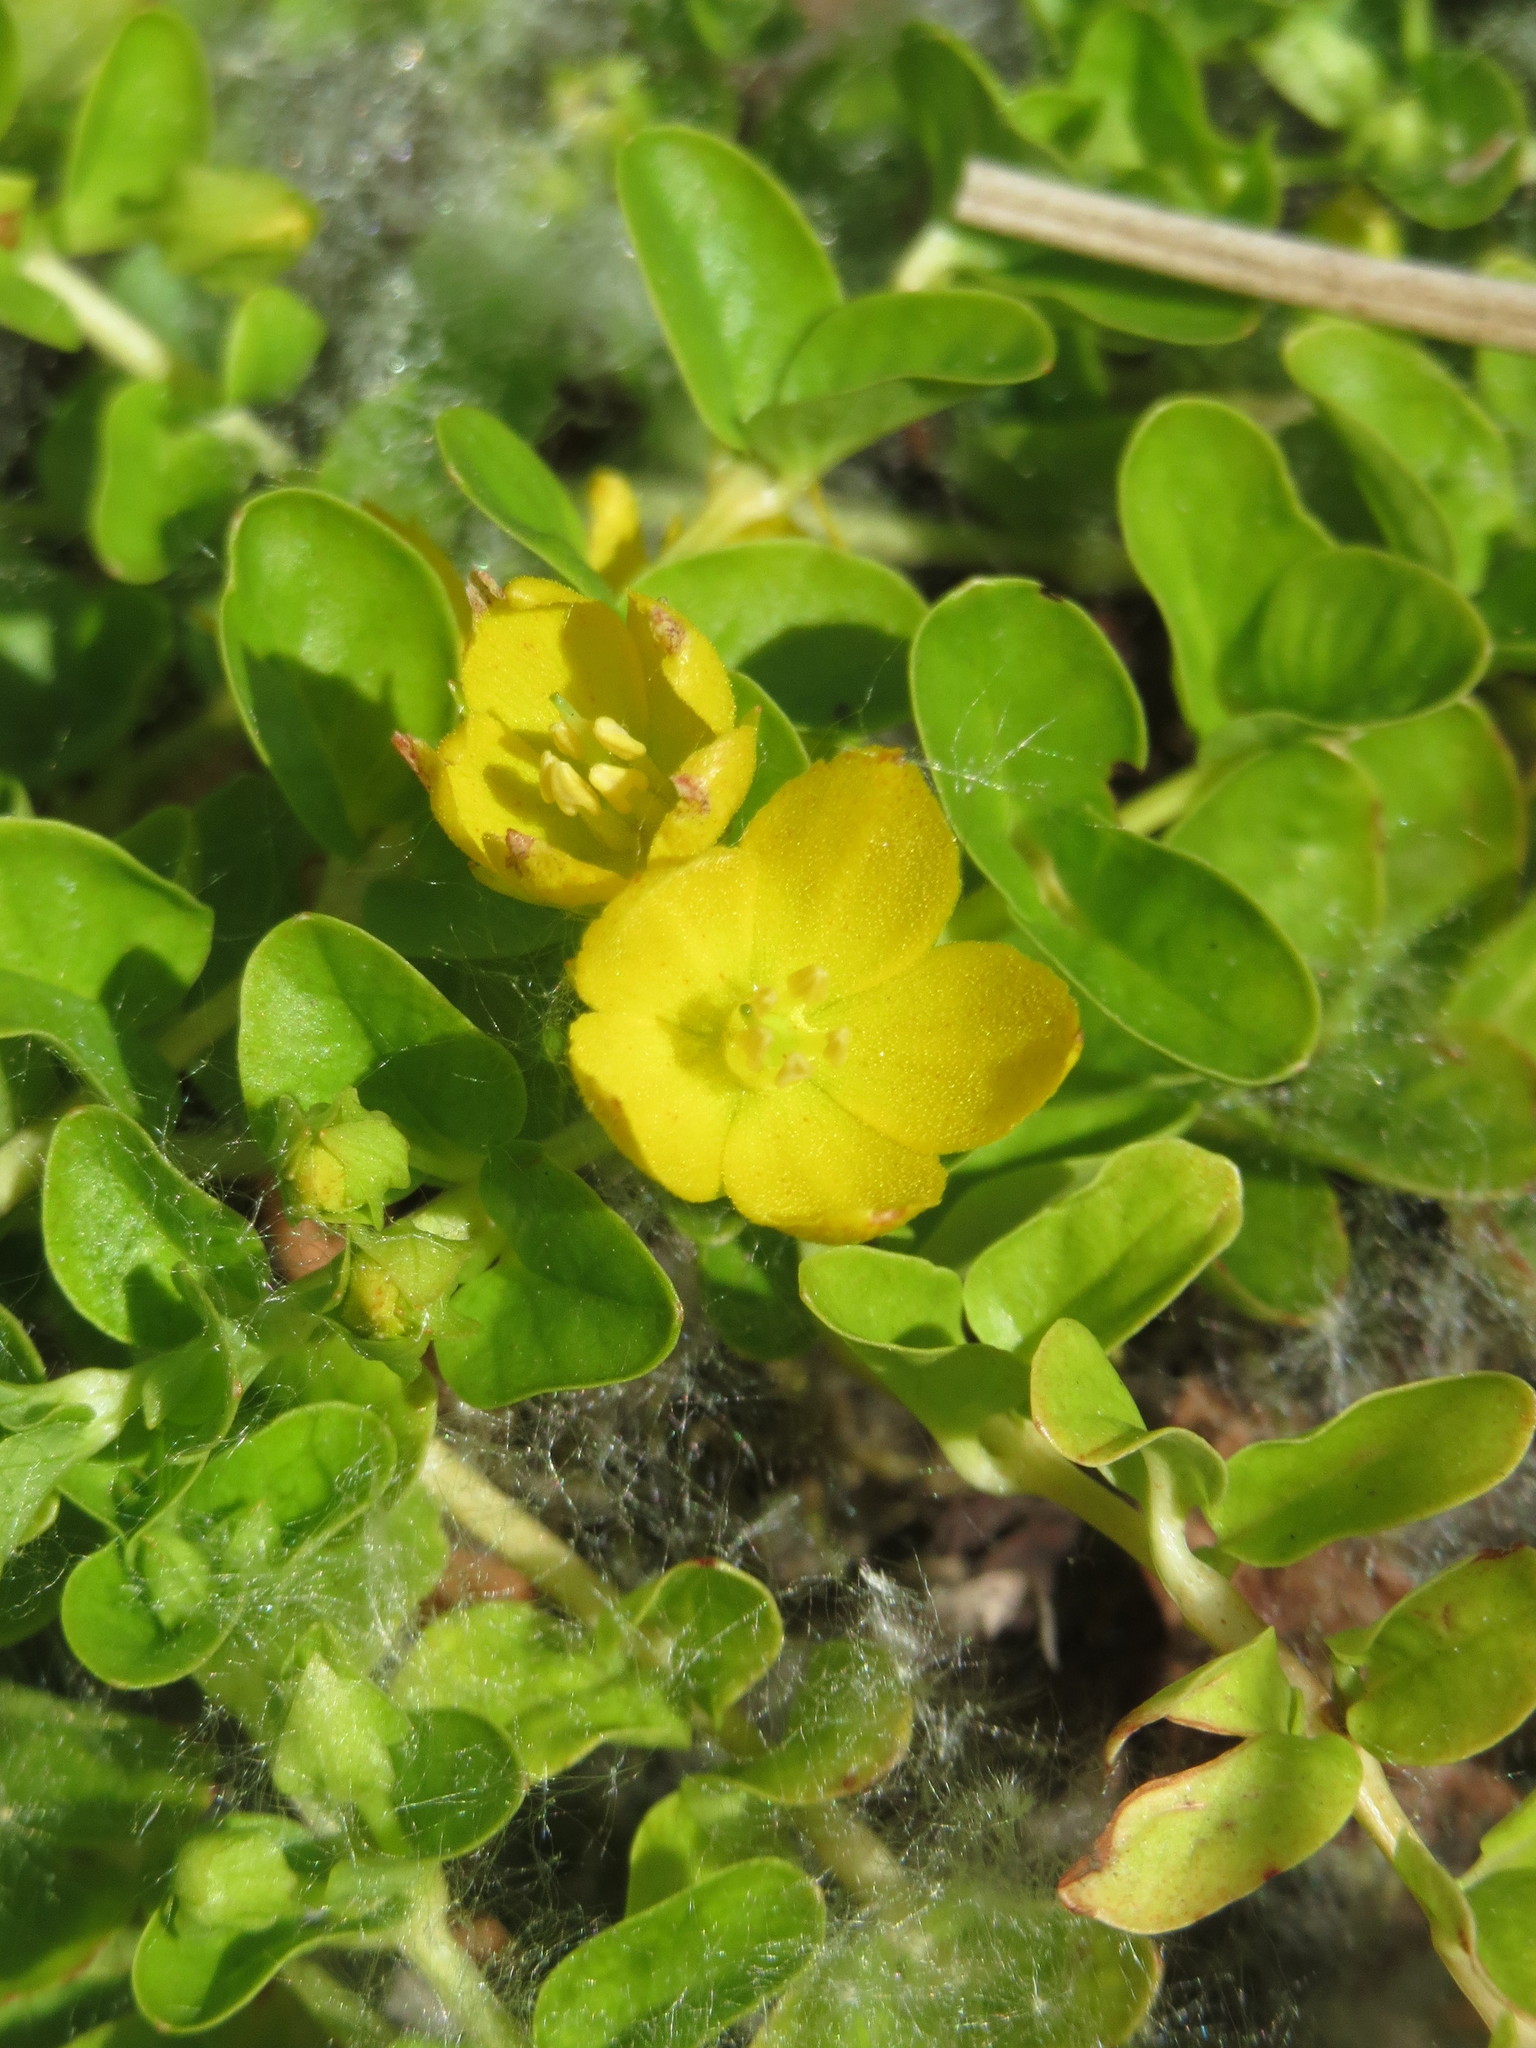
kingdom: Plantae
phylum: Tracheophyta
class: Magnoliopsida
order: Ericales
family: Primulaceae
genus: Lysimachia
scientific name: Lysimachia nummularia
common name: Moneywort
